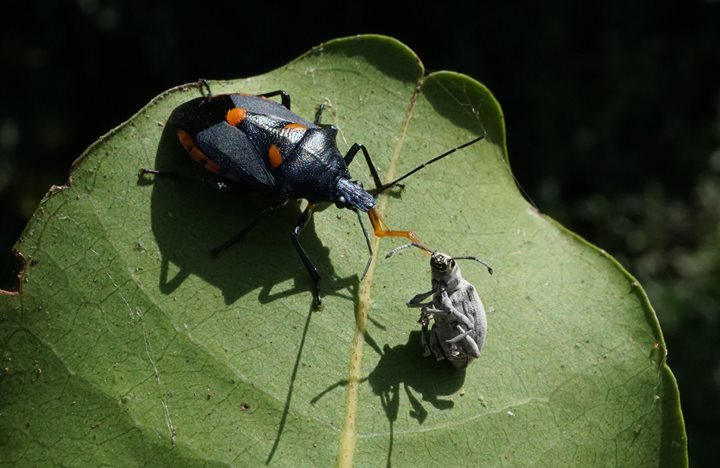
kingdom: Animalia
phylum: Arthropoda
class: Insecta
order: Hemiptera
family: Pentatomidae
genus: Euthyrhynchus
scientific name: Euthyrhynchus floridanus
